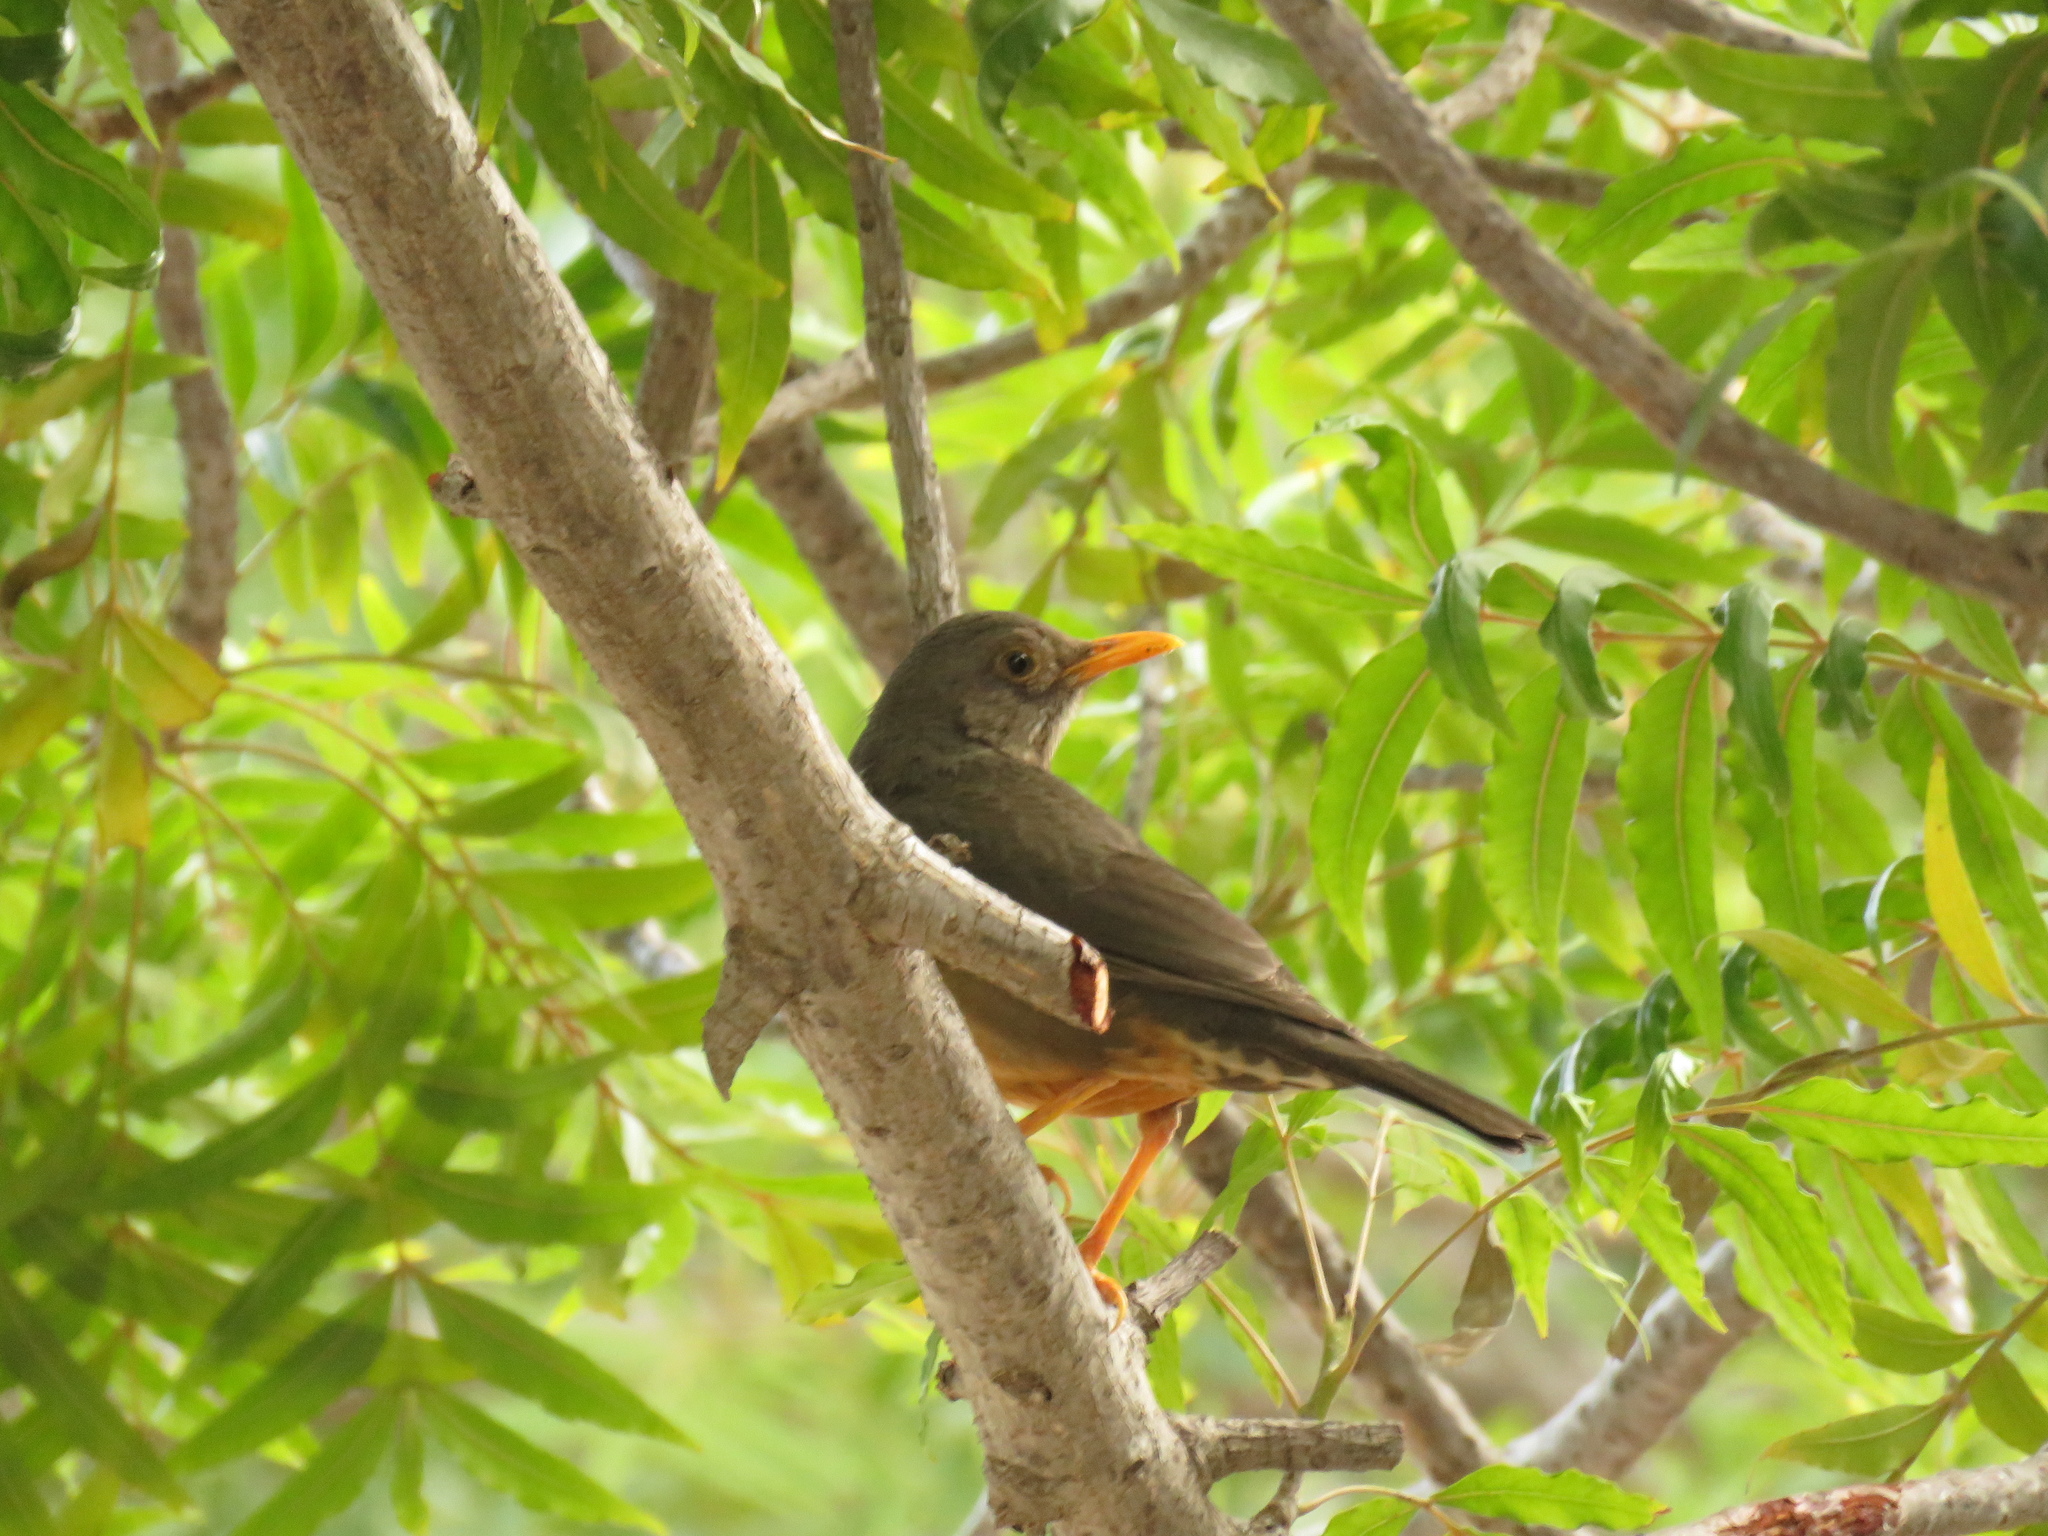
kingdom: Animalia
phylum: Chordata
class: Aves
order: Passeriformes
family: Turdidae
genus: Turdus
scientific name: Turdus smithi
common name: Karoo thrush
